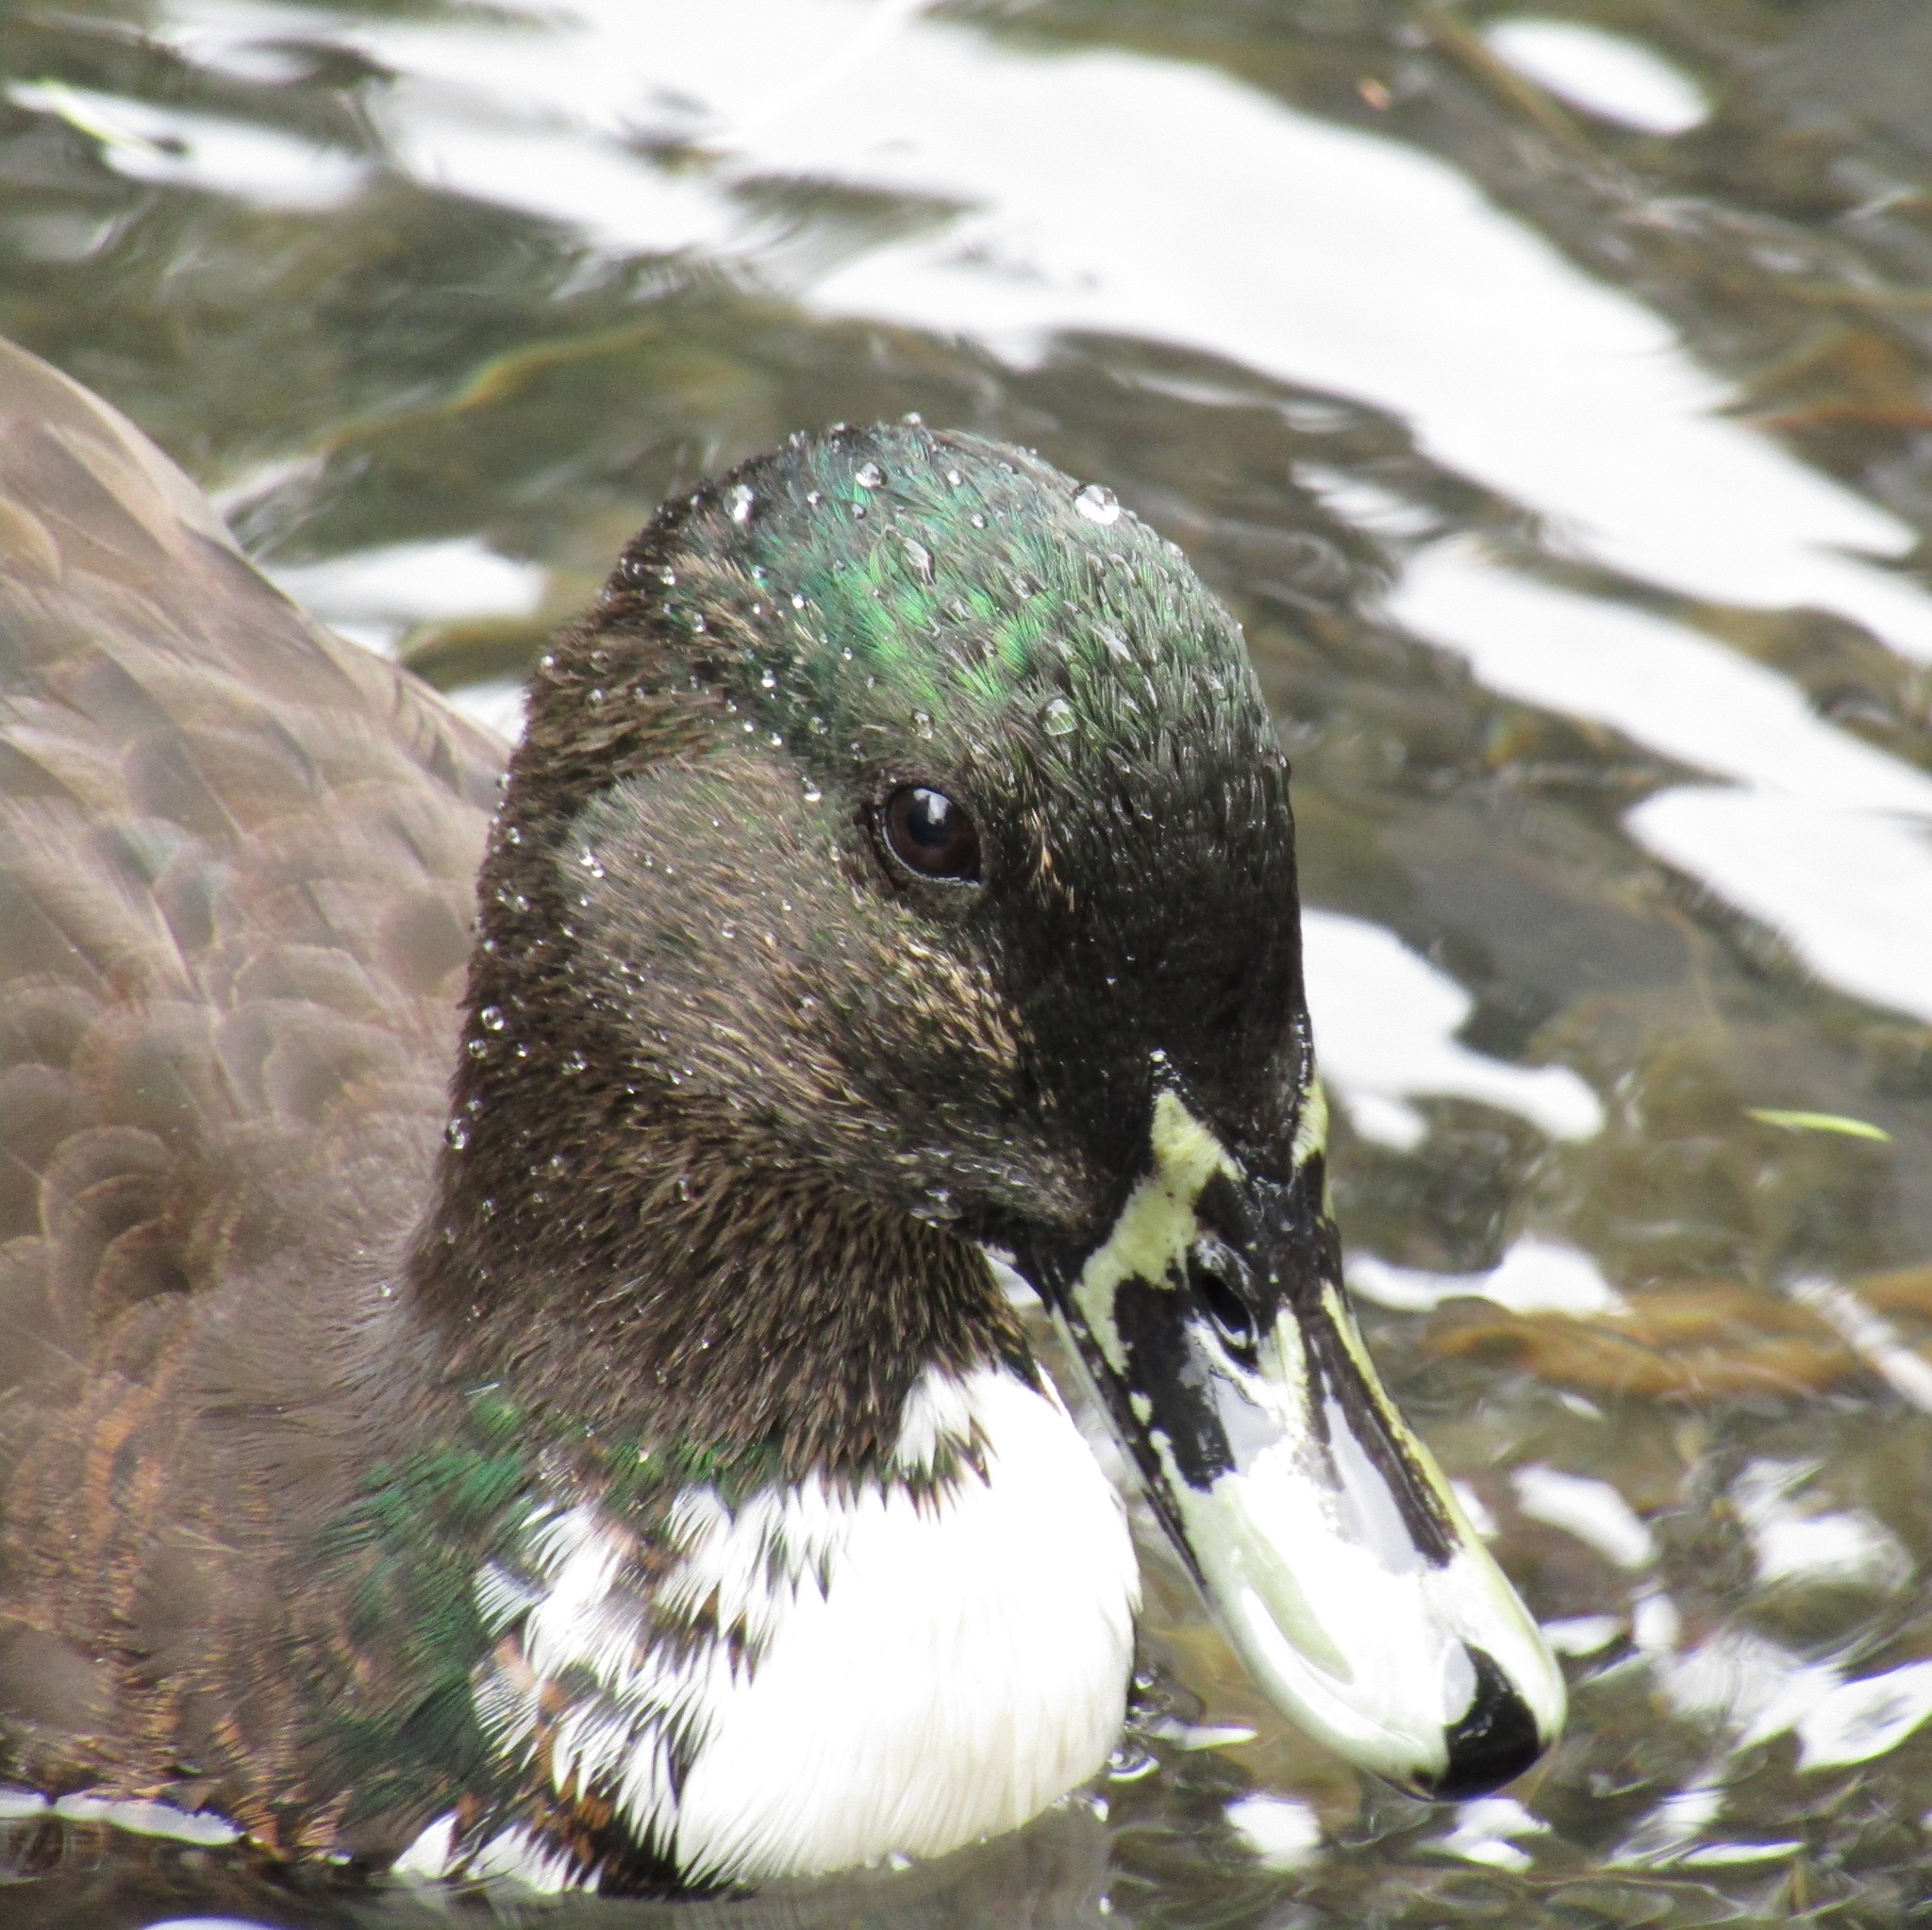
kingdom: Animalia
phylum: Chordata
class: Aves
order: Anseriformes
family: Anatidae
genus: Anas
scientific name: Anas platyrhynchos
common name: Mallard
